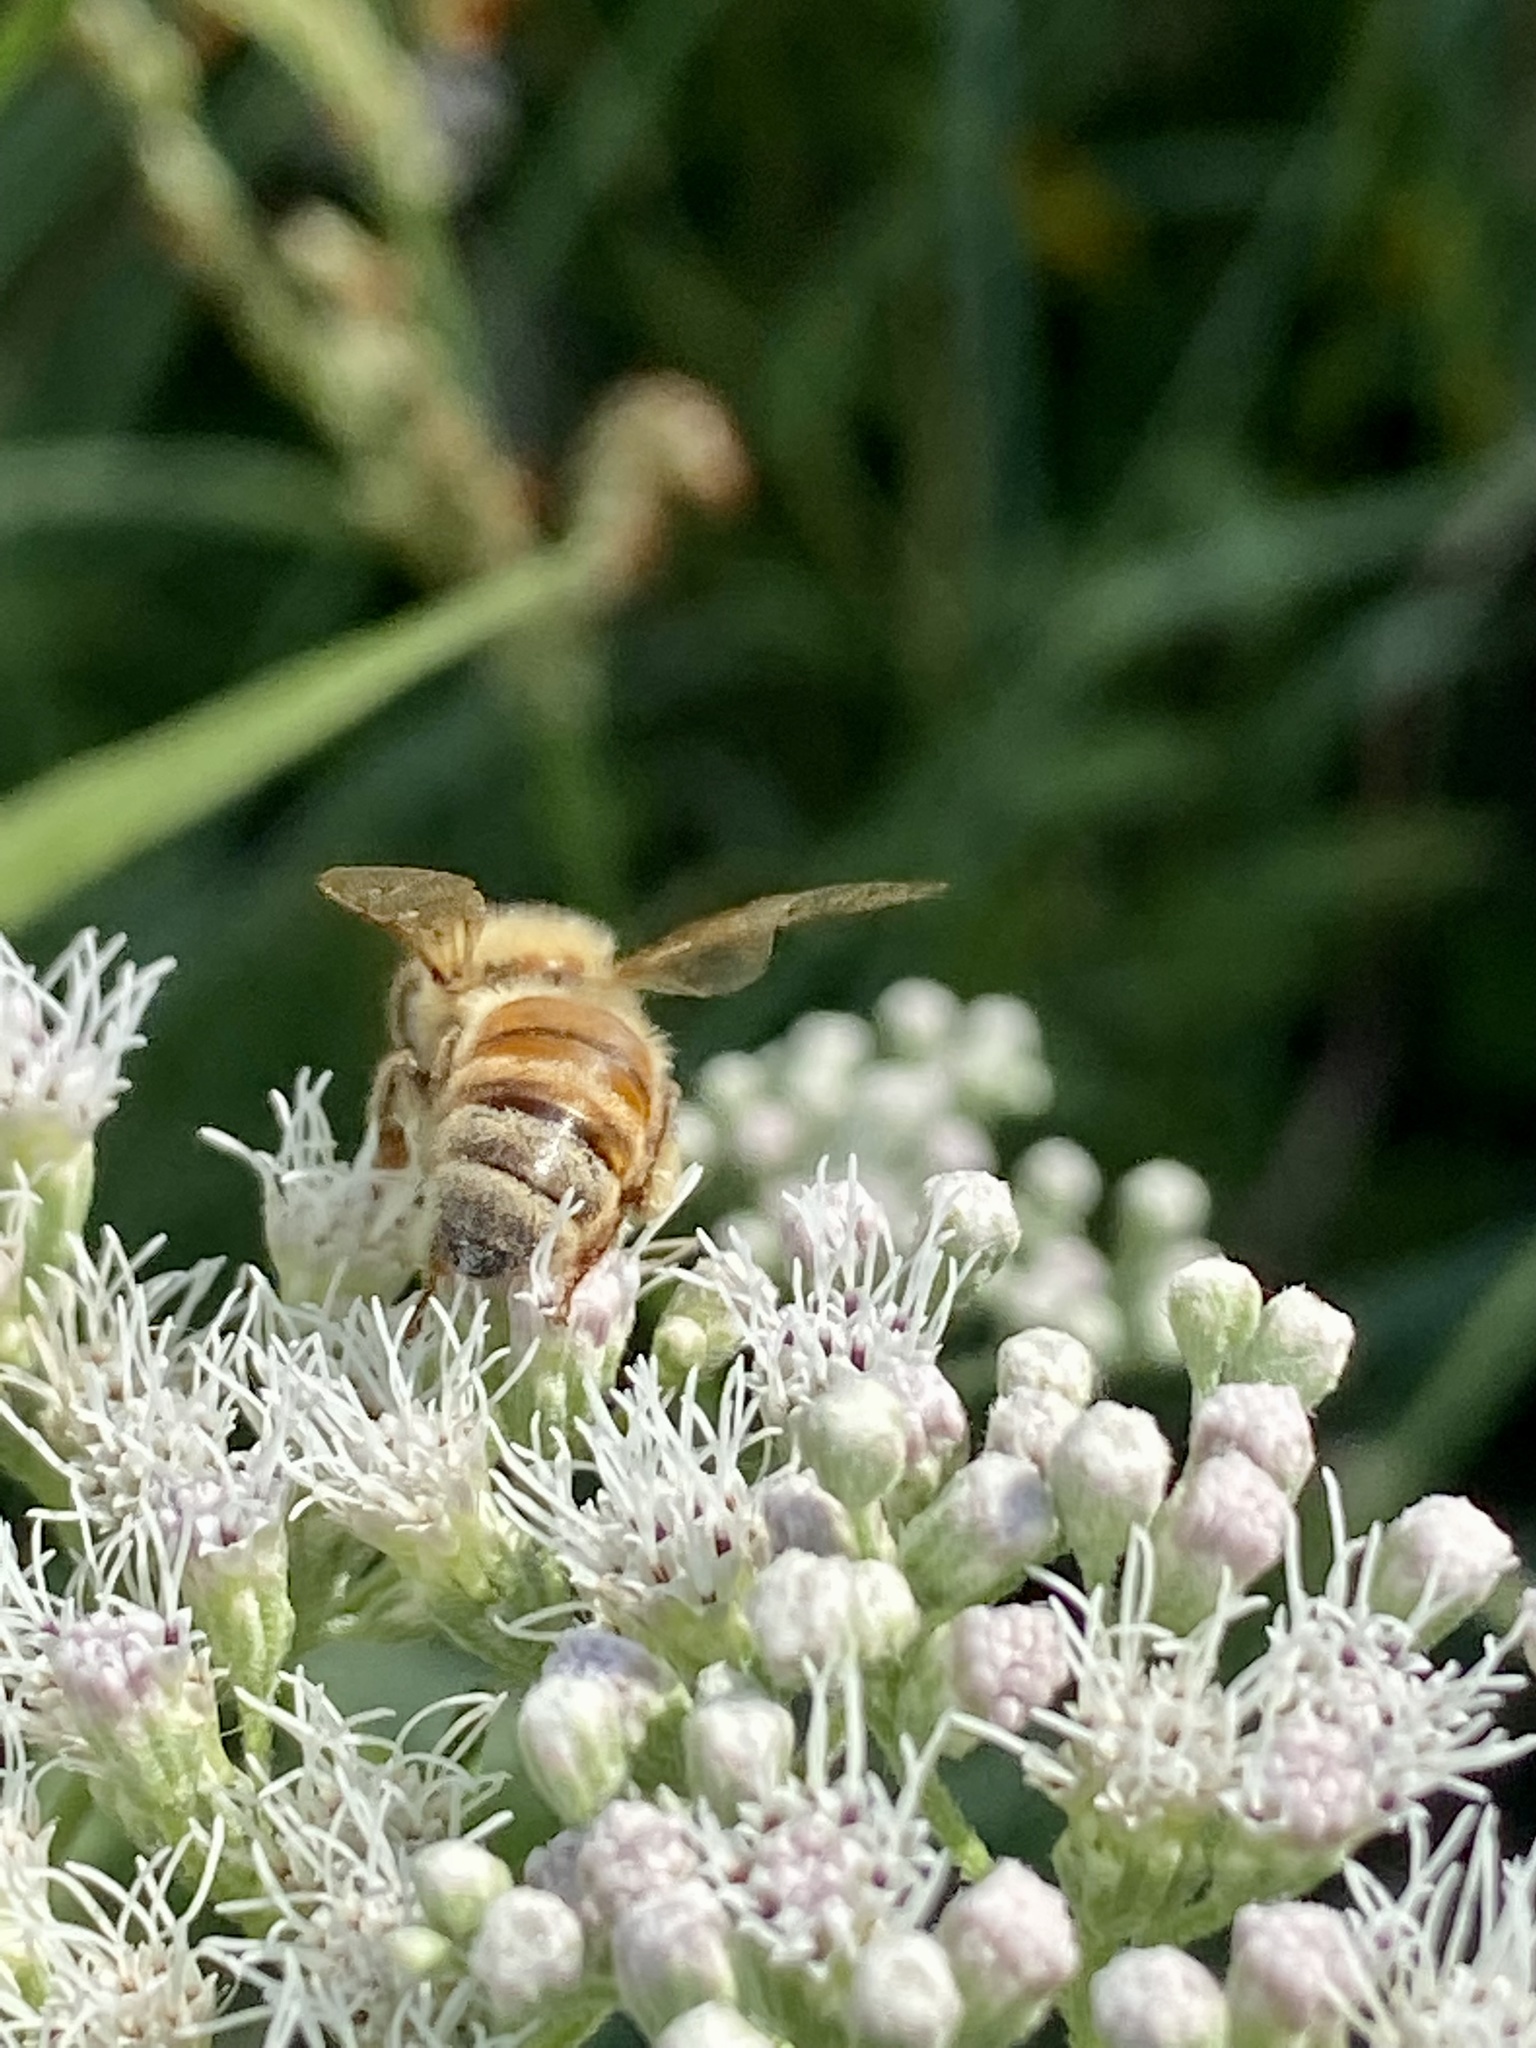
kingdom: Animalia
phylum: Arthropoda
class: Insecta
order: Hymenoptera
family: Apidae
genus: Apis
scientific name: Apis mellifera
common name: Honey bee
